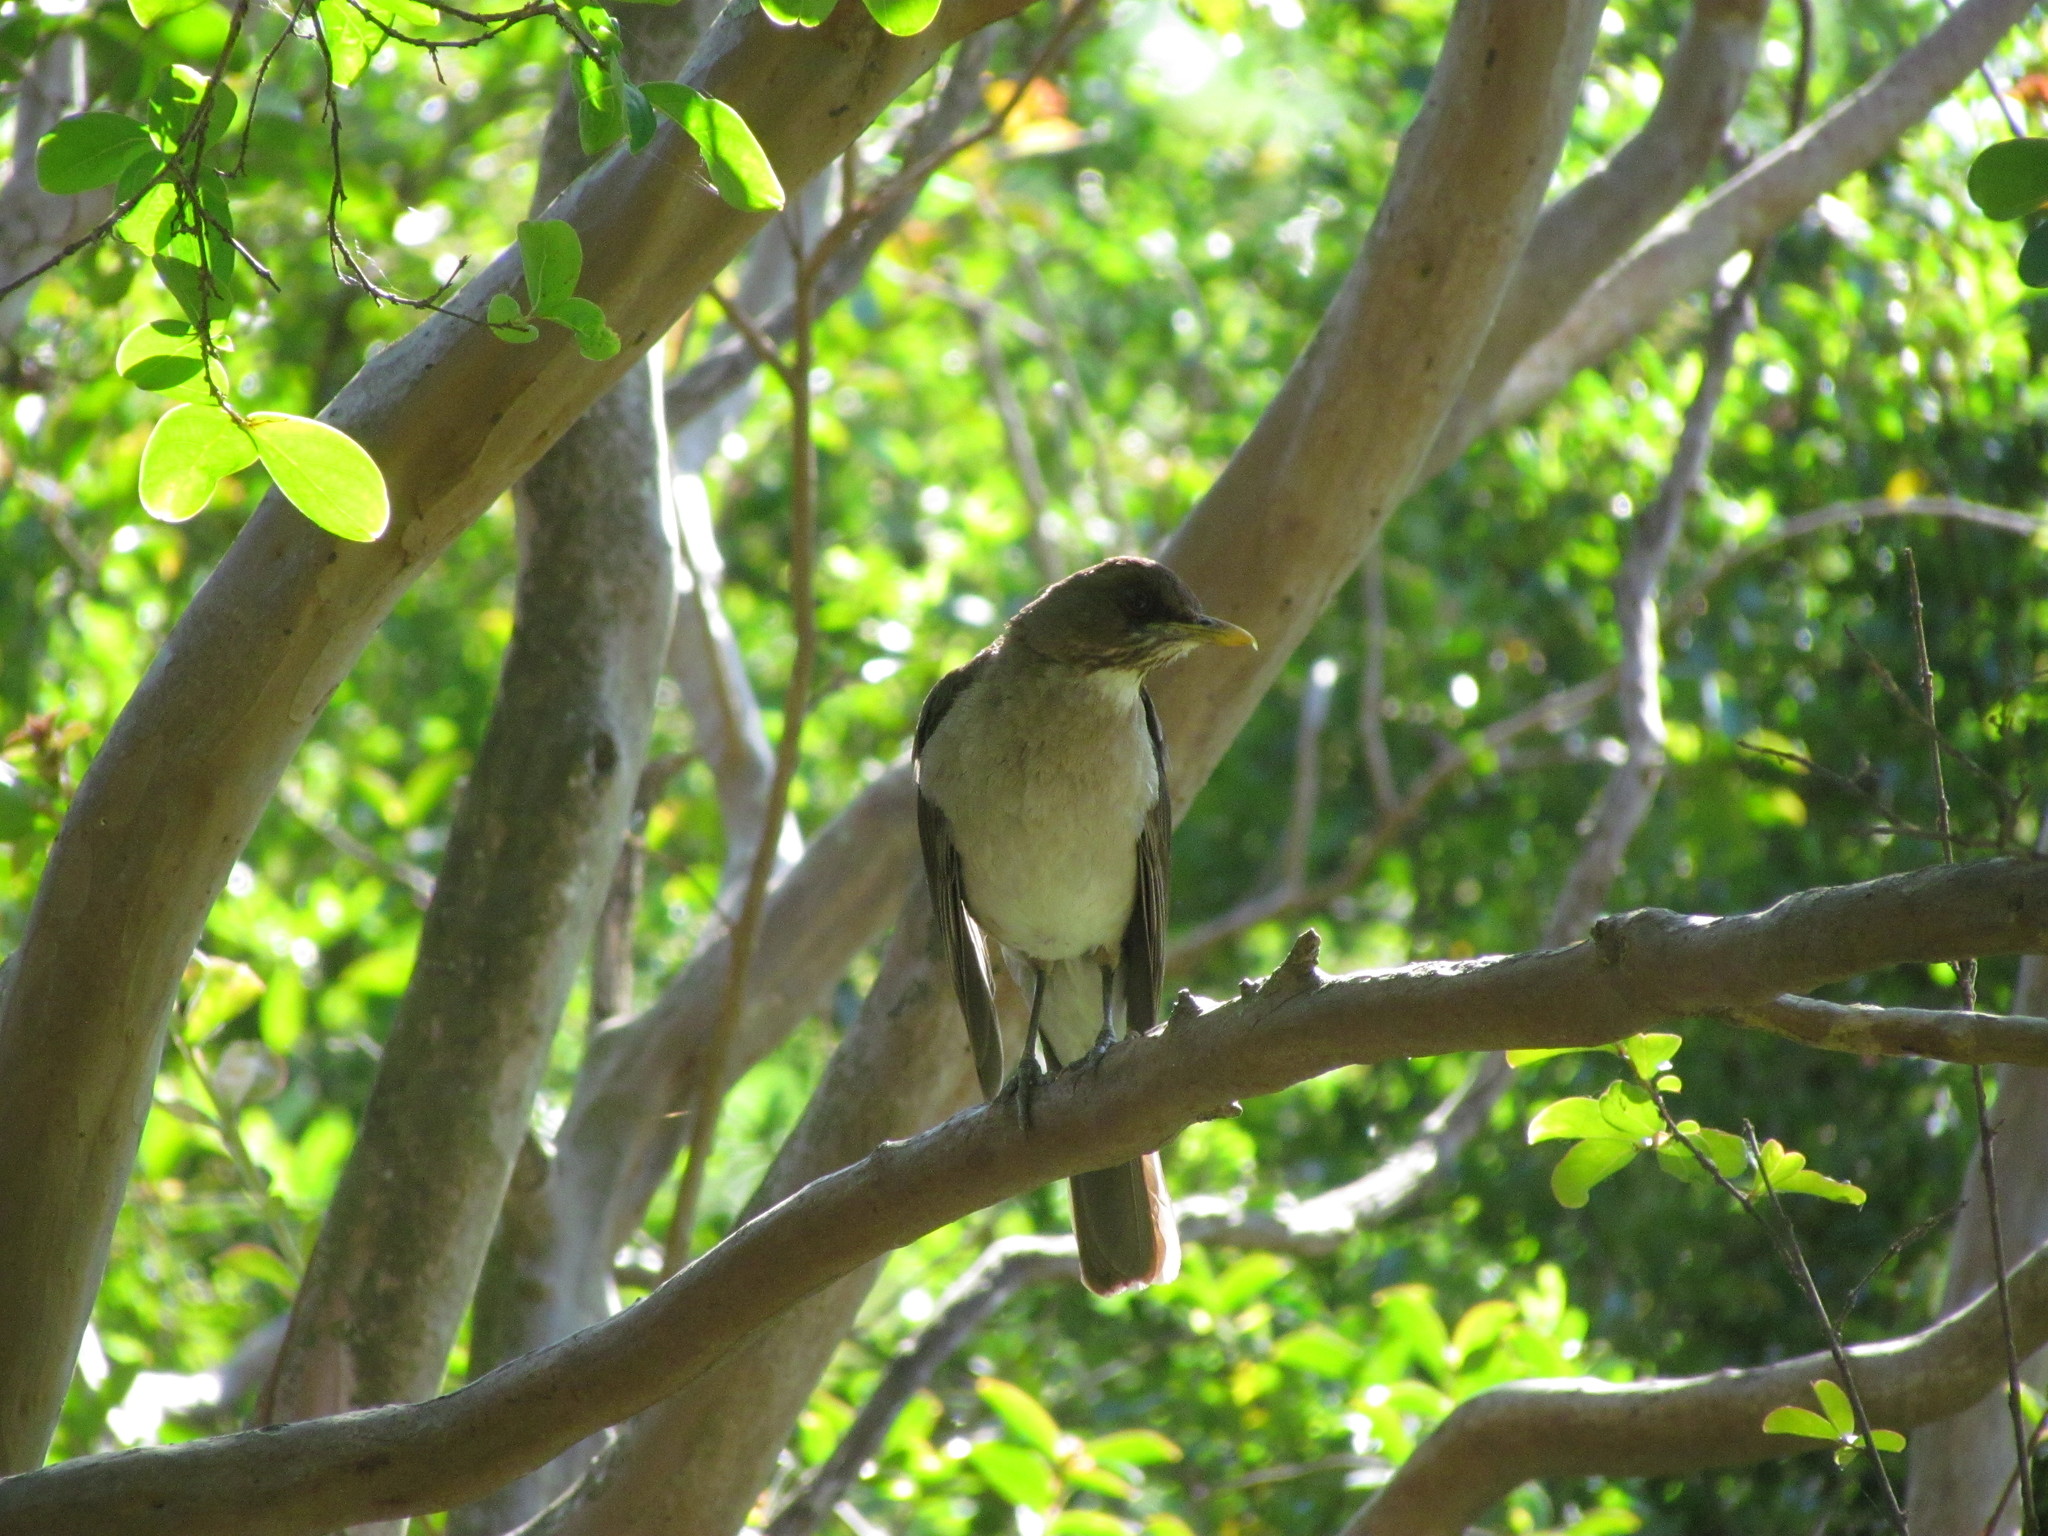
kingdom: Animalia
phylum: Chordata
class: Aves
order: Passeriformes
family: Turdidae
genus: Turdus
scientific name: Turdus amaurochalinus
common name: Creamy-bellied thrush
